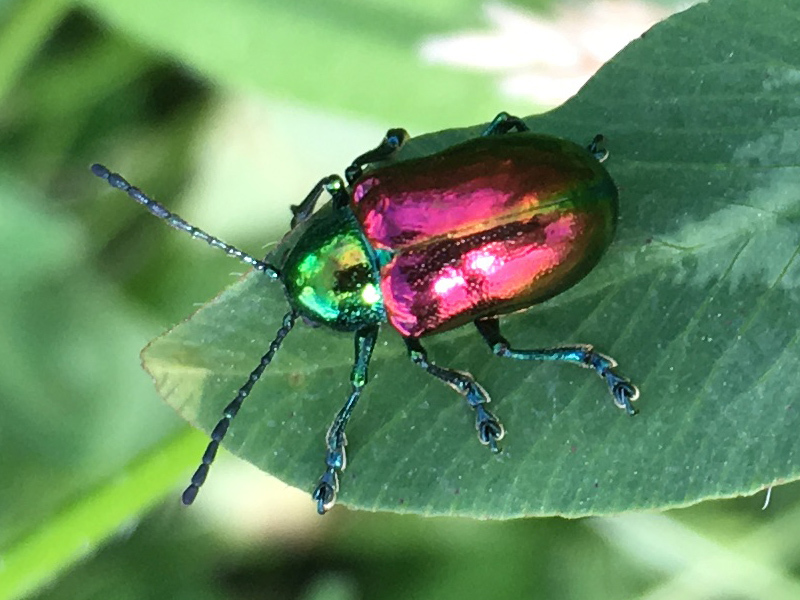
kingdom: Animalia
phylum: Arthropoda
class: Insecta
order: Coleoptera
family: Chrysomelidae
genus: Chrysochus
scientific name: Chrysochus auratus
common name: Dogbane leaf beetle
